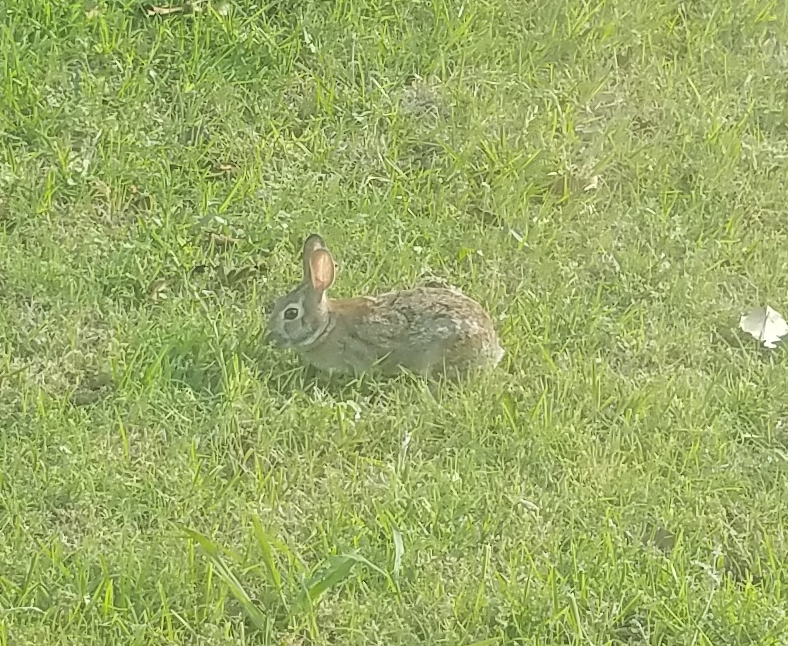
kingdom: Animalia
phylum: Chordata
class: Mammalia
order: Lagomorpha
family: Leporidae
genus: Sylvilagus
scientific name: Sylvilagus floridanus
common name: Eastern cottontail
